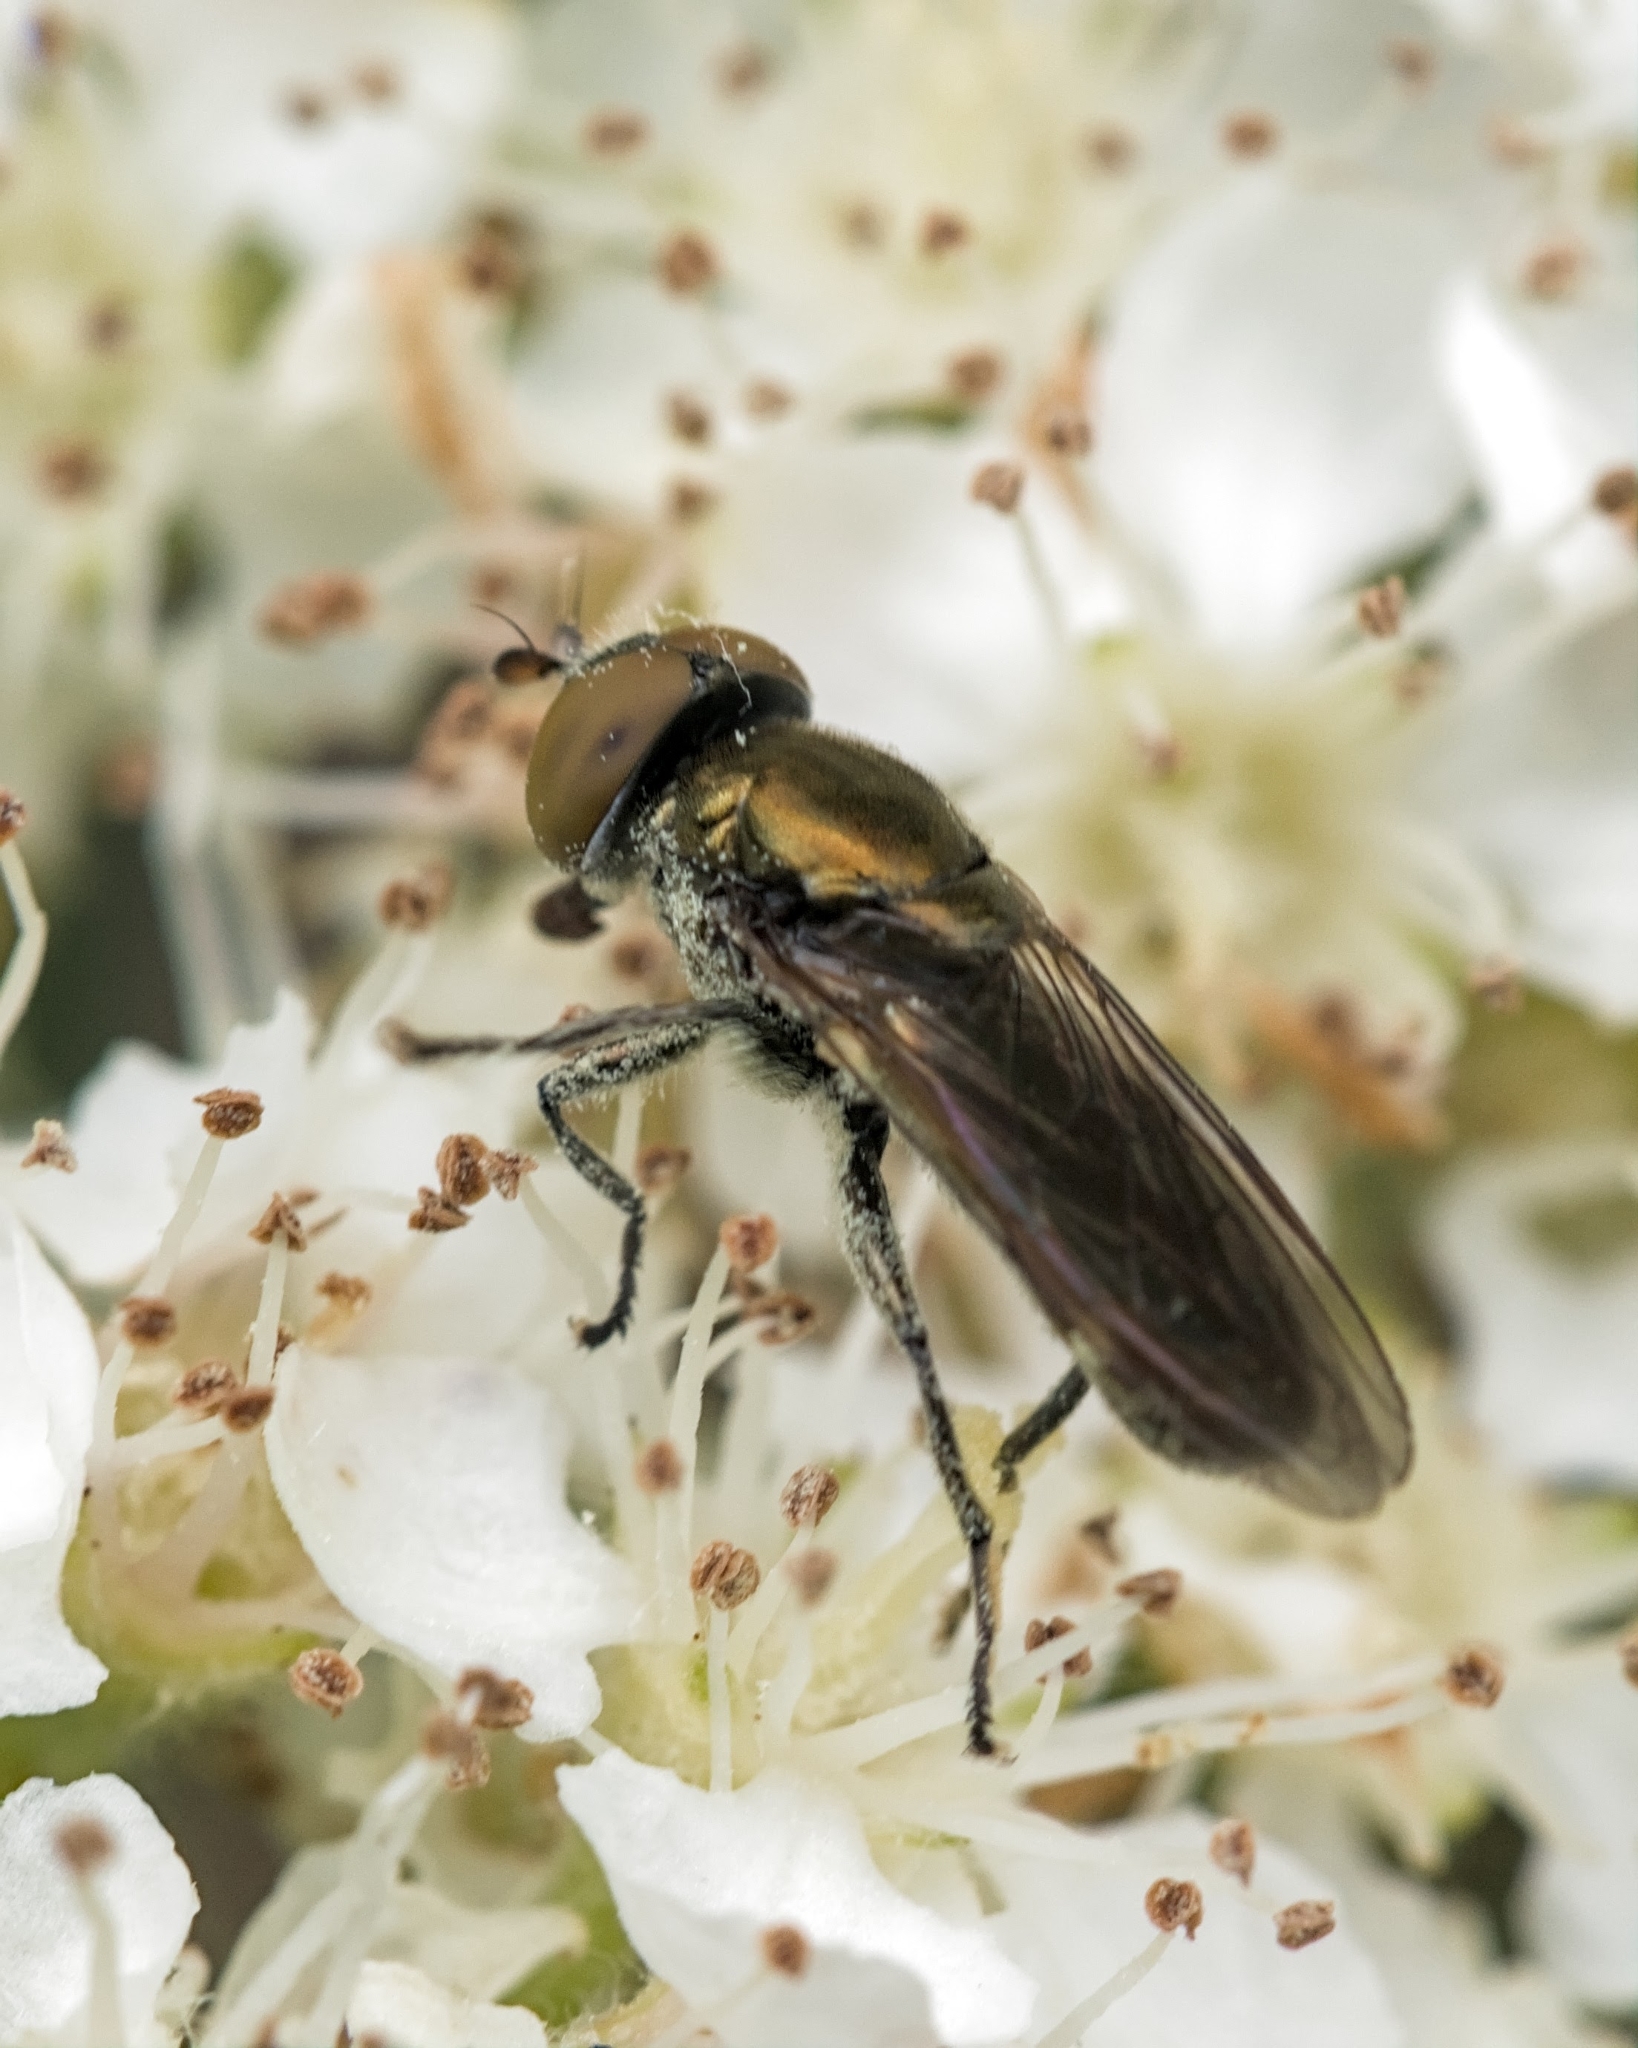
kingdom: Animalia
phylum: Arthropoda
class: Insecta
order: Diptera
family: Syrphidae
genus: Orthonevra
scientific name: Orthonevra splendens
